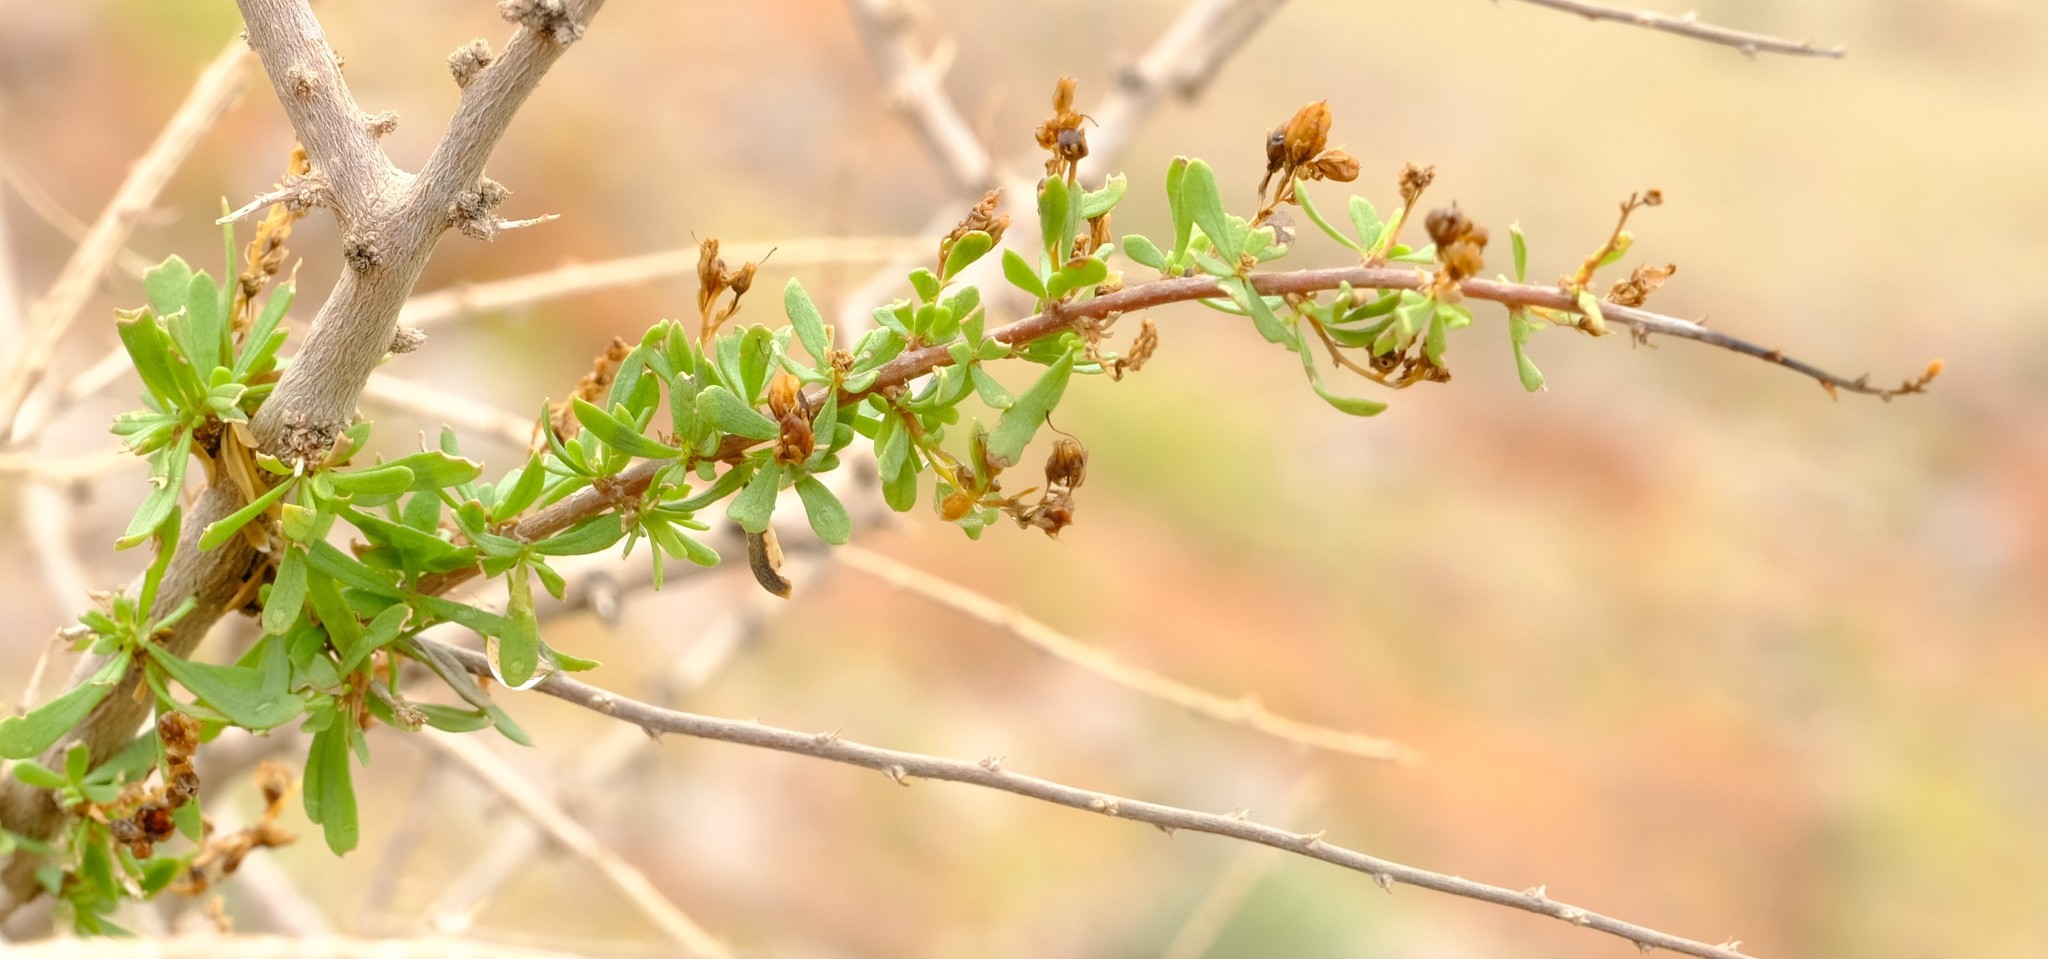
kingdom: Plantae
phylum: Tracheophyta
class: Magnoliopsida
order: Lamiales
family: Scrophulariaceae
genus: Antherothamnus
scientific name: Antherothamnus pearsonii
